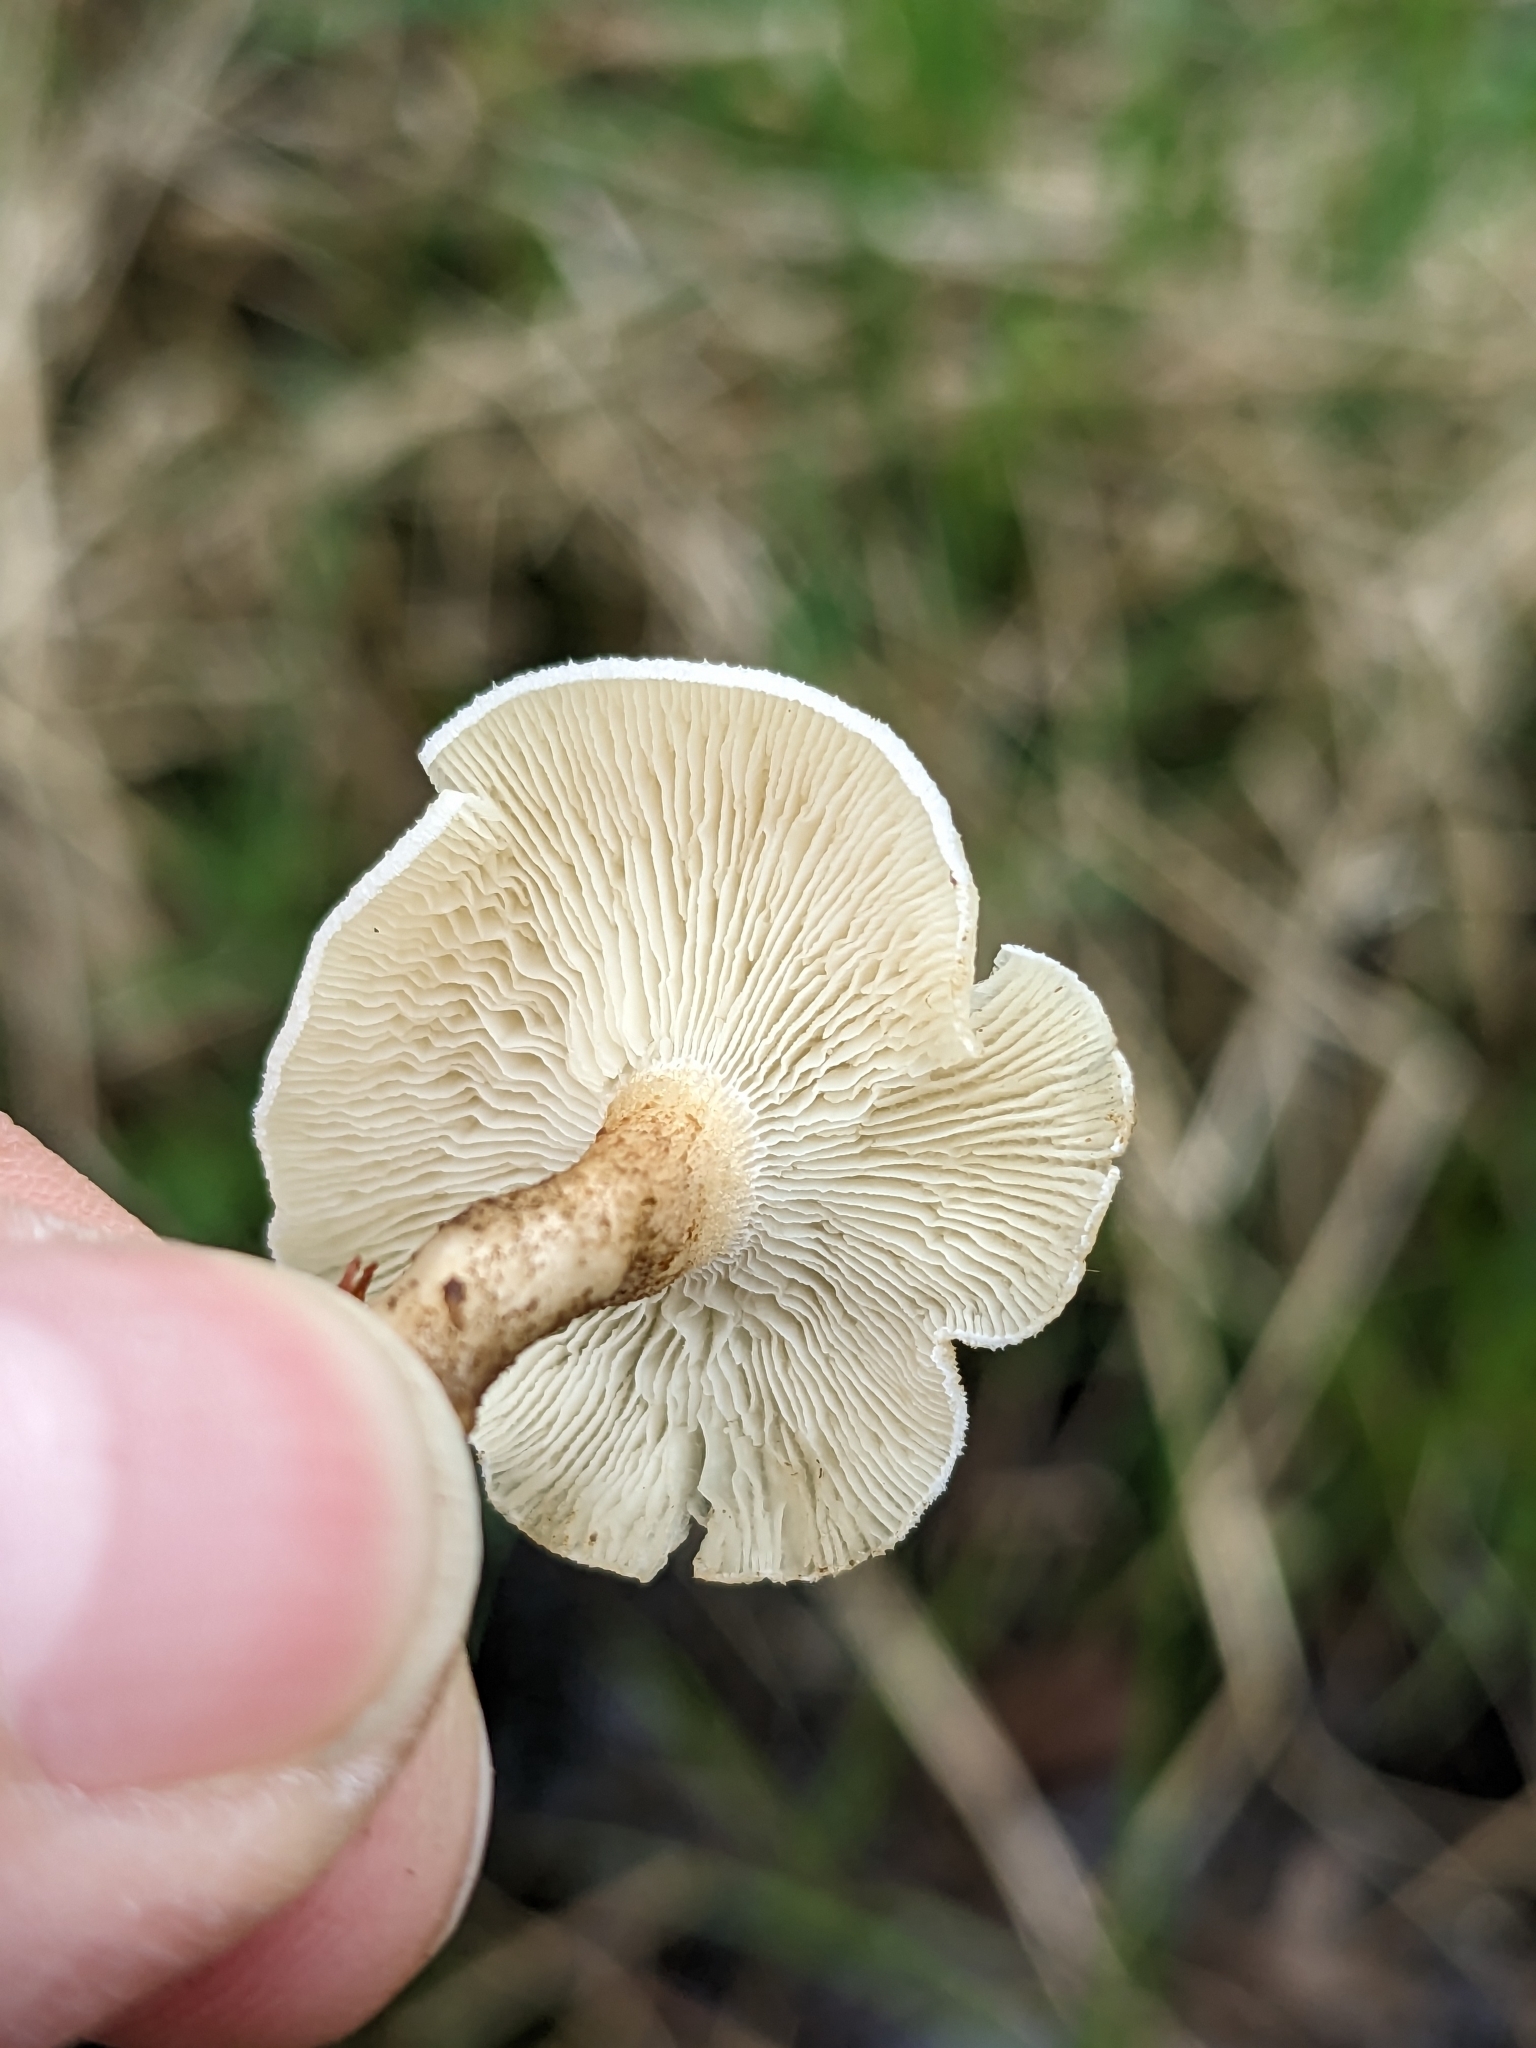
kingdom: Fungi
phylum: Basidiomycota
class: Agaricomycetes
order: Polyporales
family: Polyporaceae
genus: Lentinus
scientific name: Lentinus tigrinus
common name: Tiger sawgill
